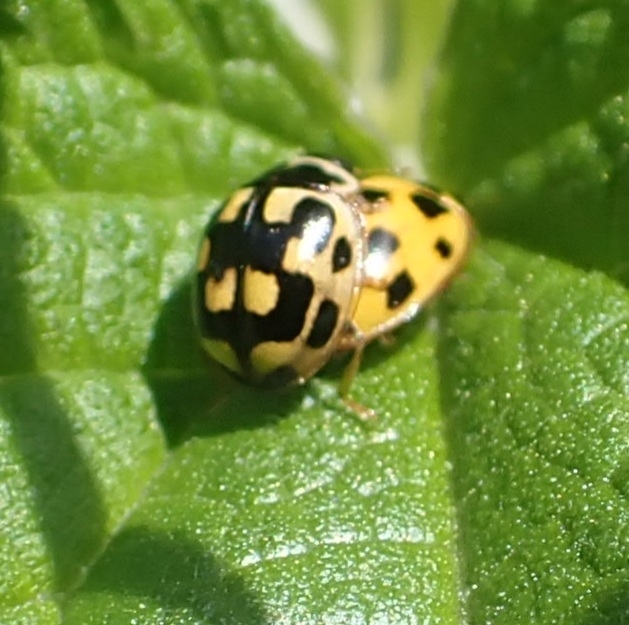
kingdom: Animalia
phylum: Arthropoda
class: Insecta
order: Coleoptera
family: Coccinellidae
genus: Propylaea
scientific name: Propylaea quatuordecimpunctata
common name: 14-spotted ladybird beetle
